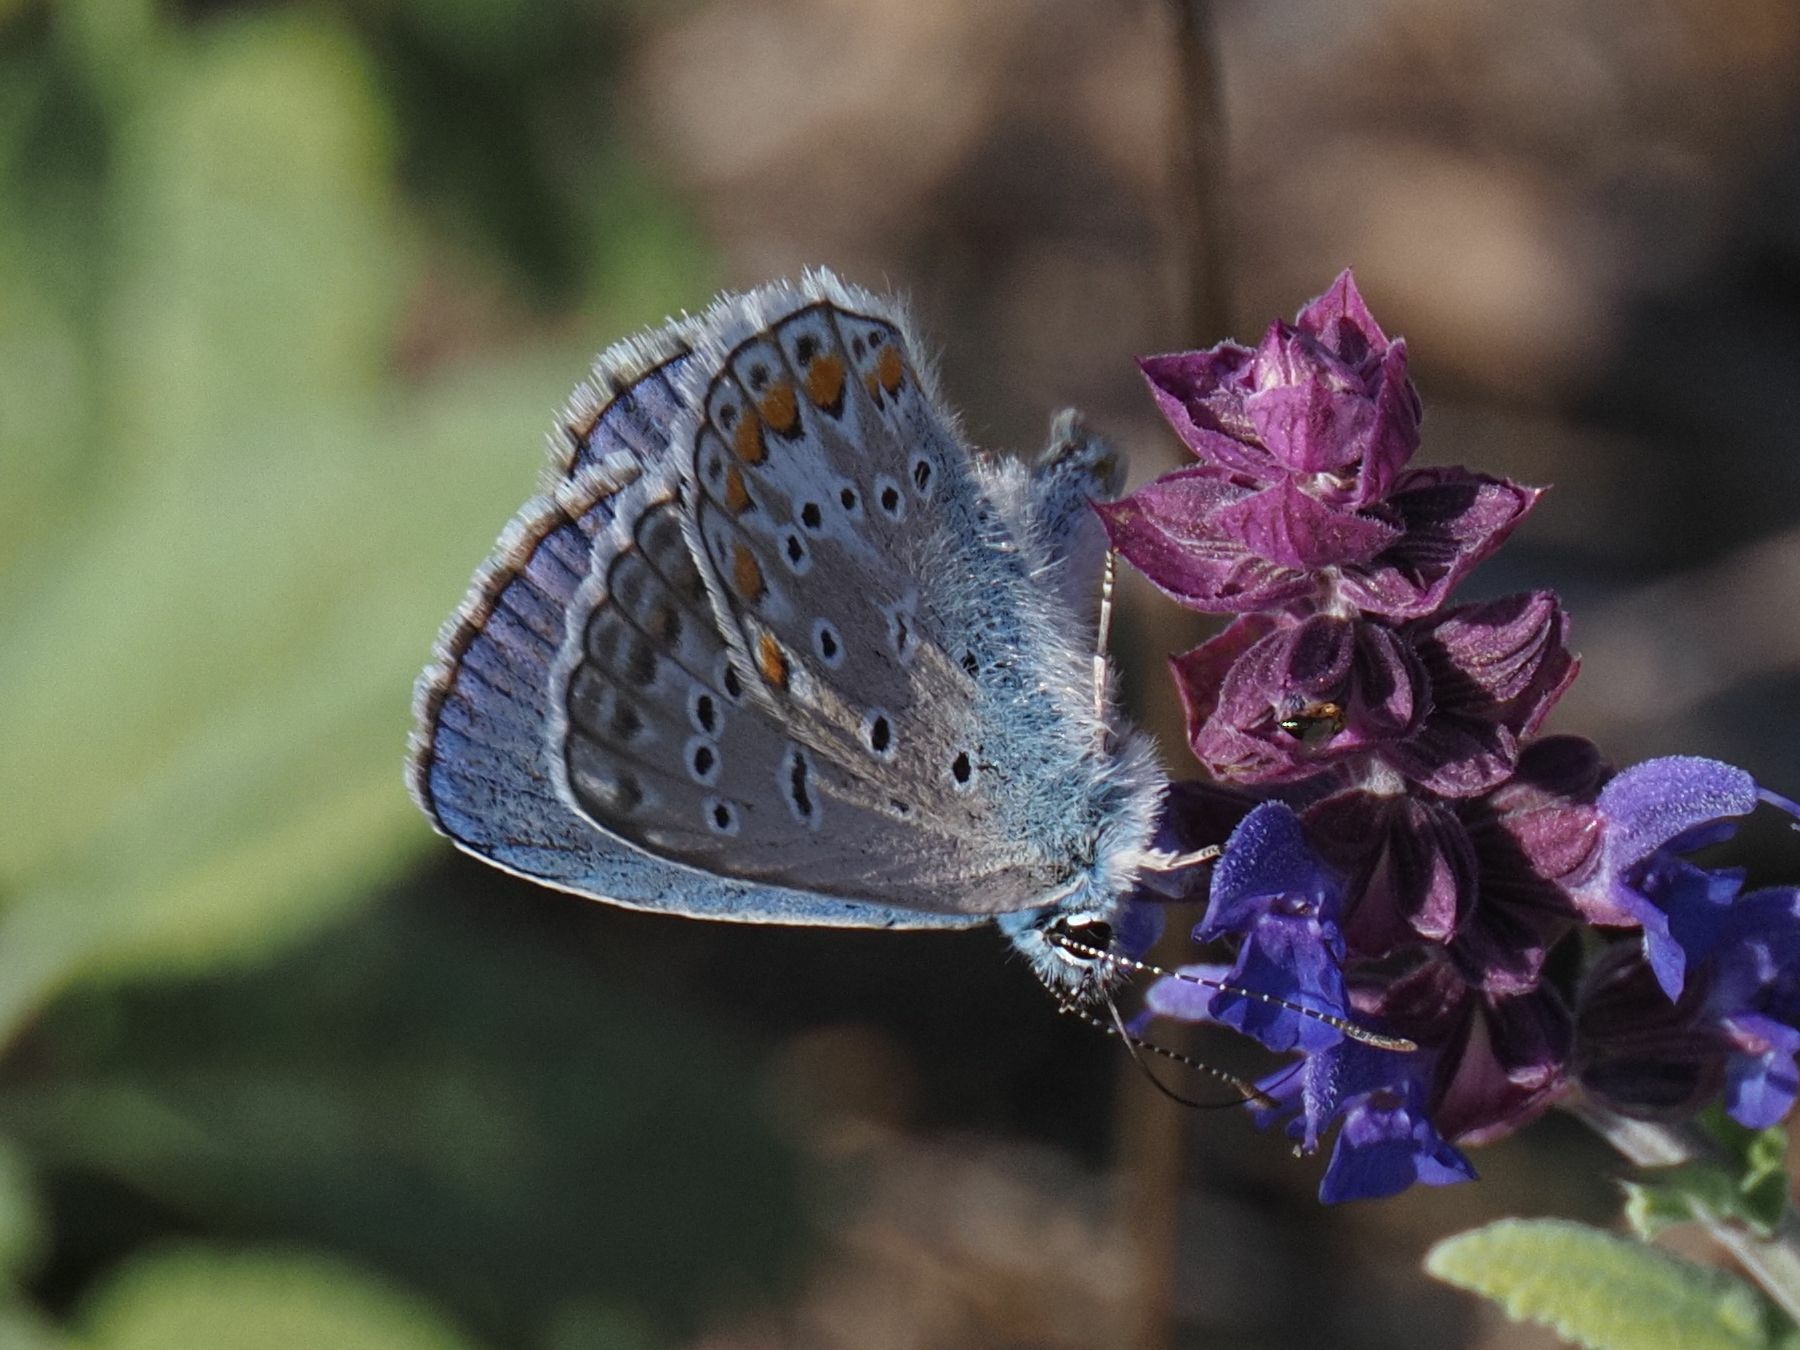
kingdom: Animalia
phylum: Arthropoda
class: Insecta
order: Lepidoptera
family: Lycaenidae
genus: Polyommatus
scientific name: Polyommatus icarus
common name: Common blue
